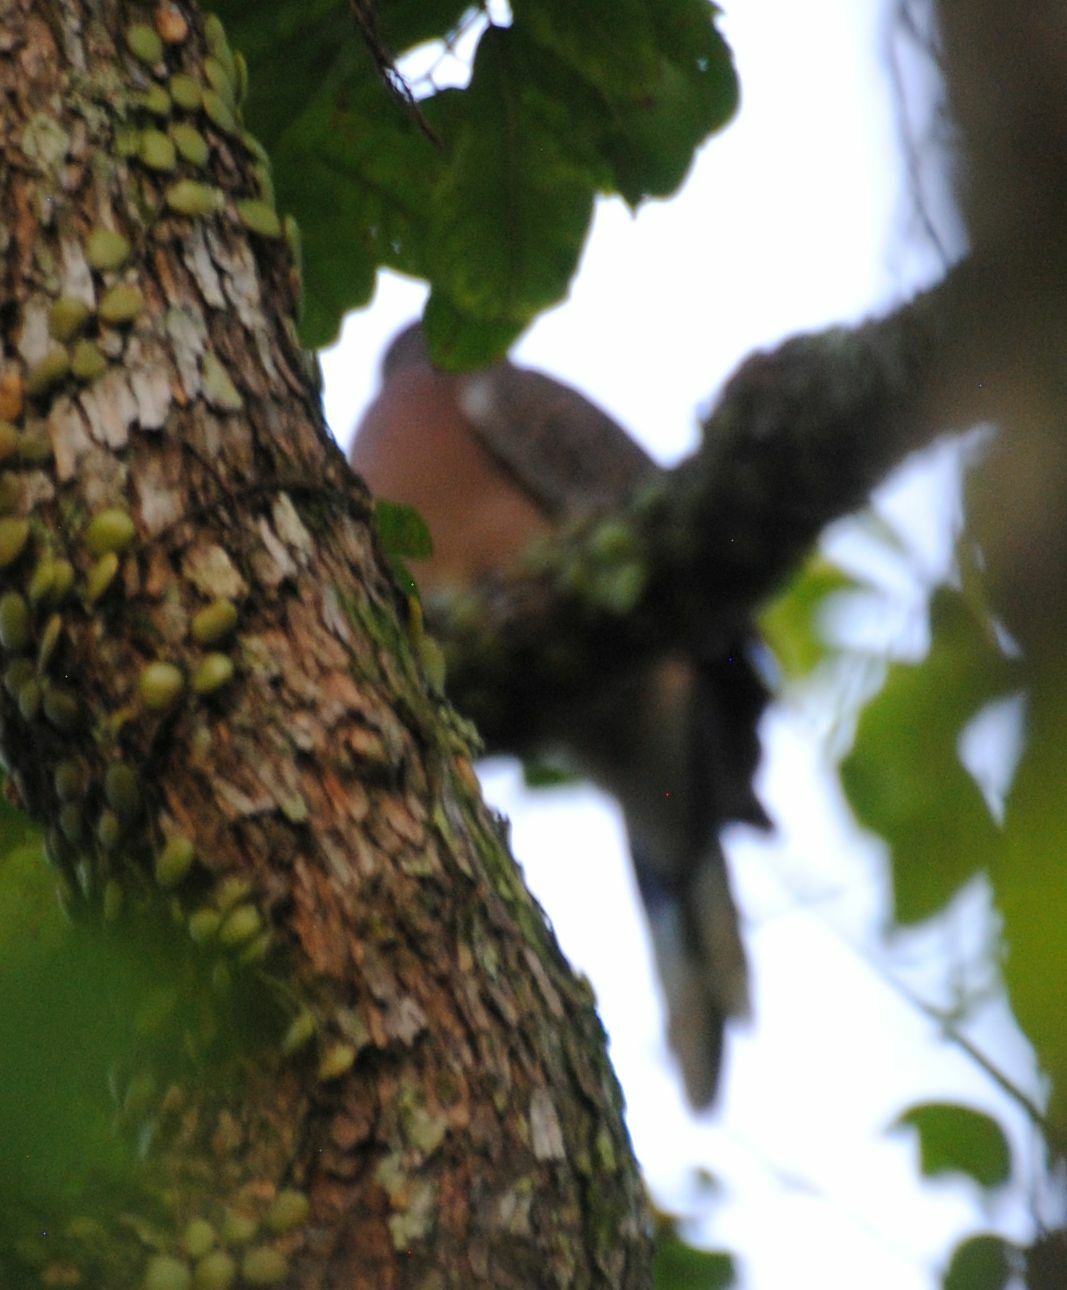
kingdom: Animalia
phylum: Chordata
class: Aves
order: Columbiformes
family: Columbidae
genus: Spilopelia
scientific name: Spilopelia chinensis
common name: Spotted dove
